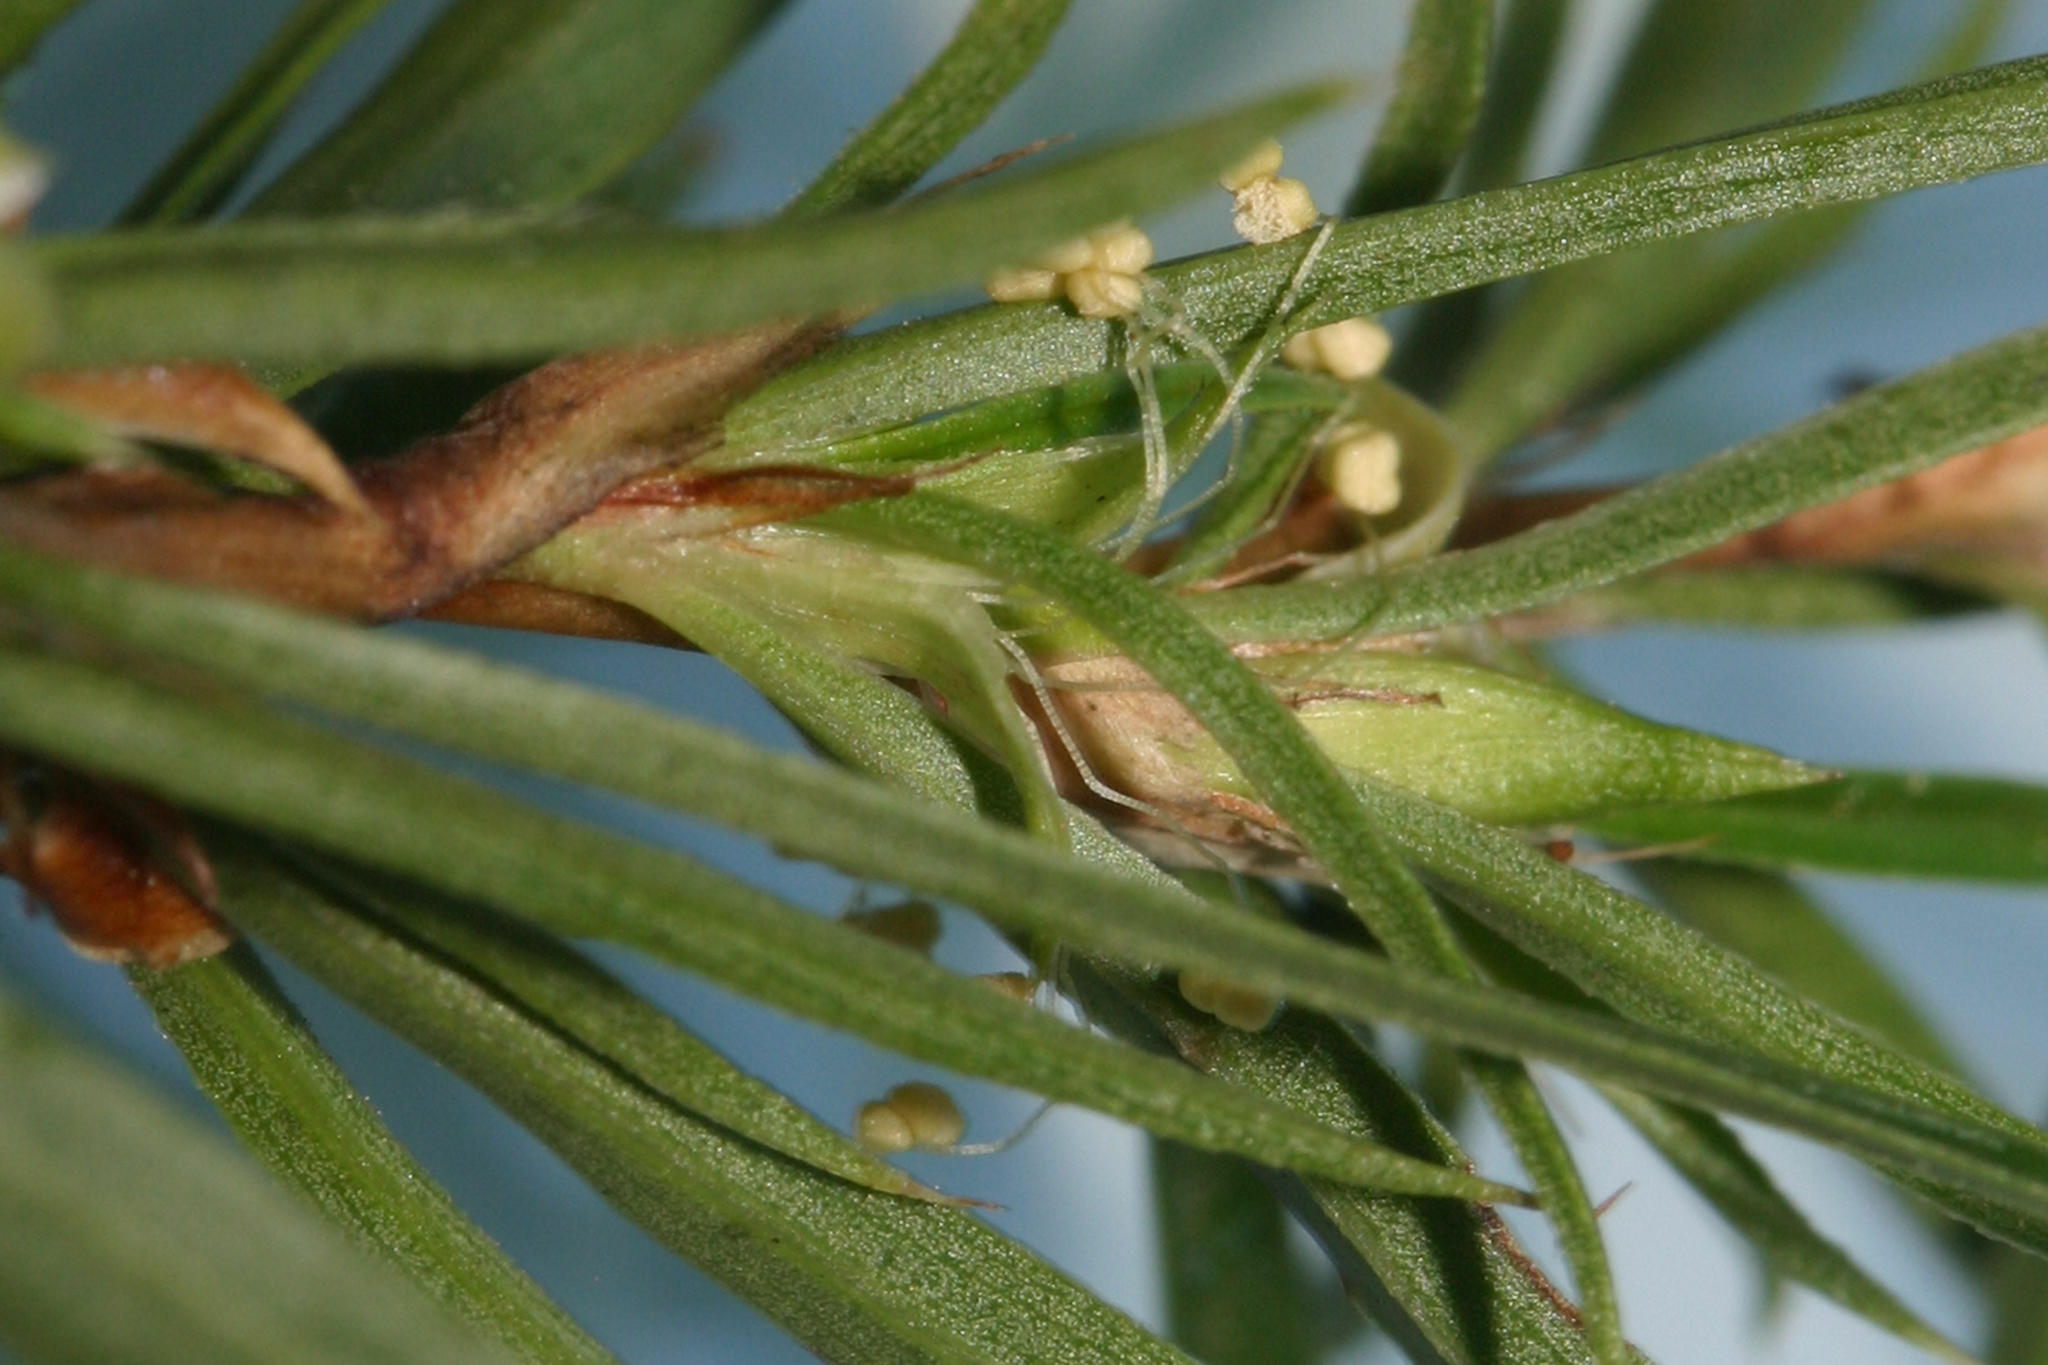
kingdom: Plantae
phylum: Tracheophyta
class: Magnoliopsida
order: Rosales
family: Rosaceae
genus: Cliffortia
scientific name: Cliffortia strobilifera
